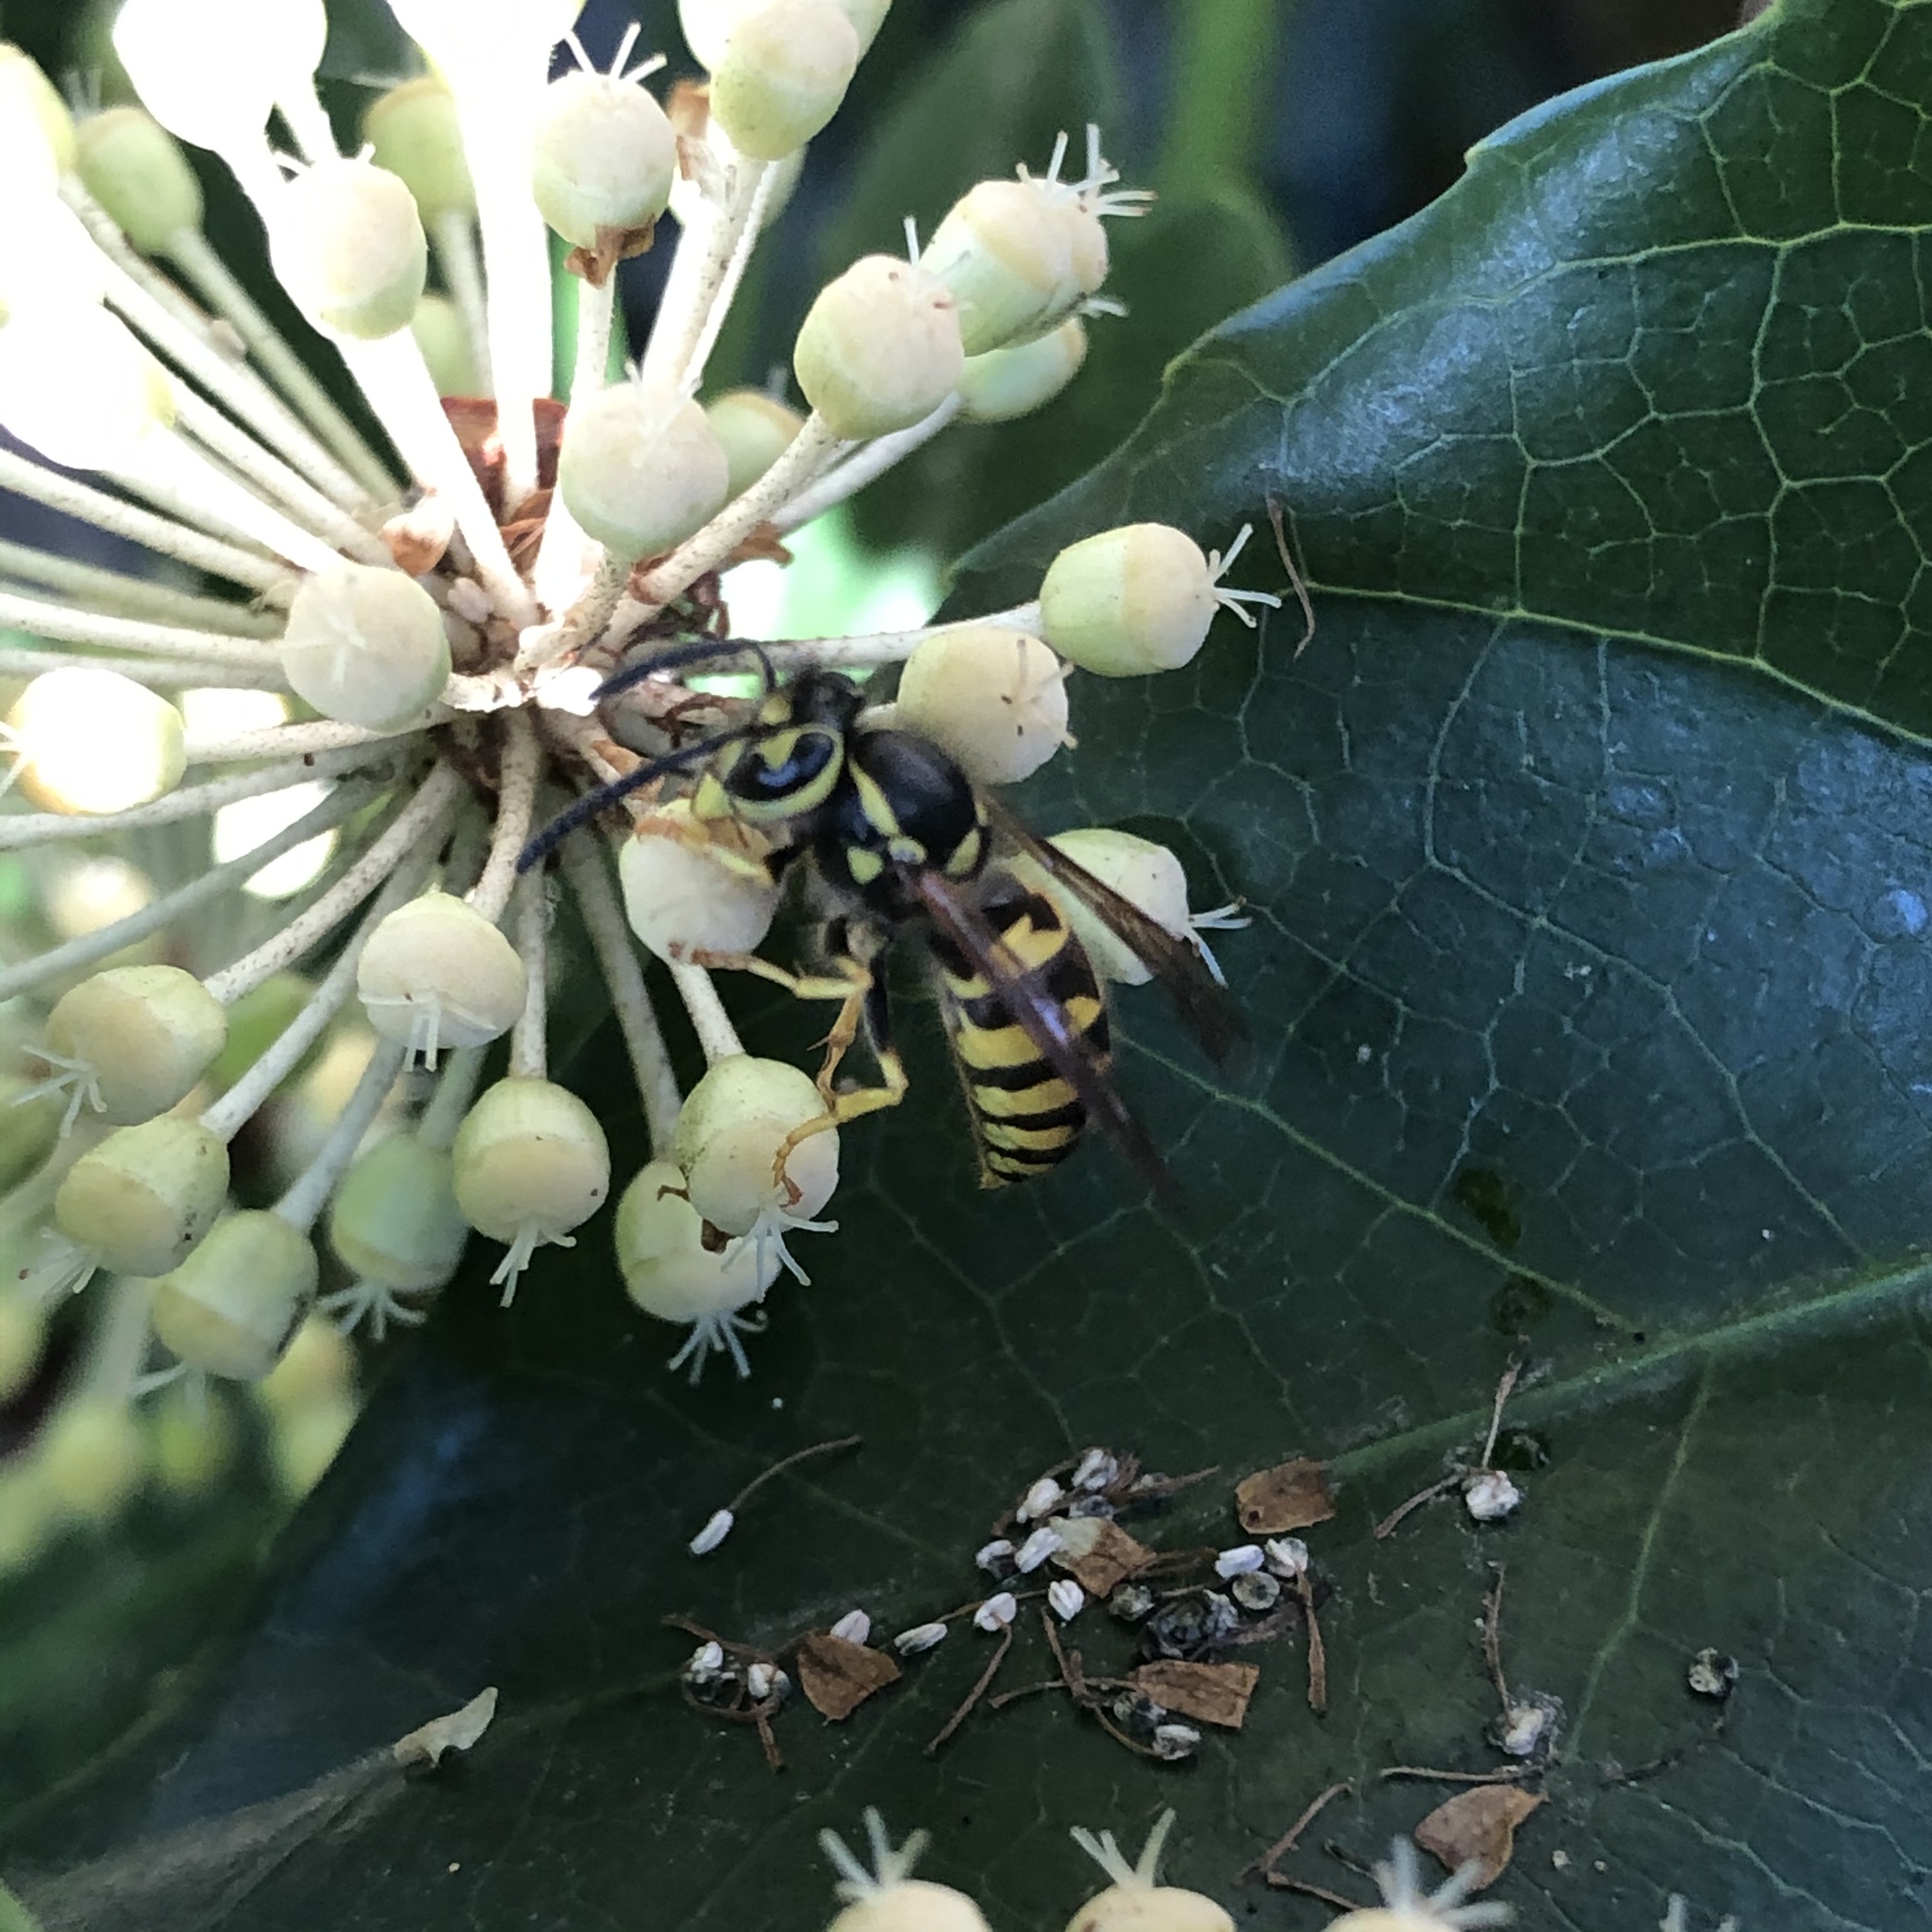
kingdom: Animalia
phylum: Arthropoda
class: Insecta
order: Hymenoptera
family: Vespidae
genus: Vespula
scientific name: Vespula pensylvanica
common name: Western yellowjacket
